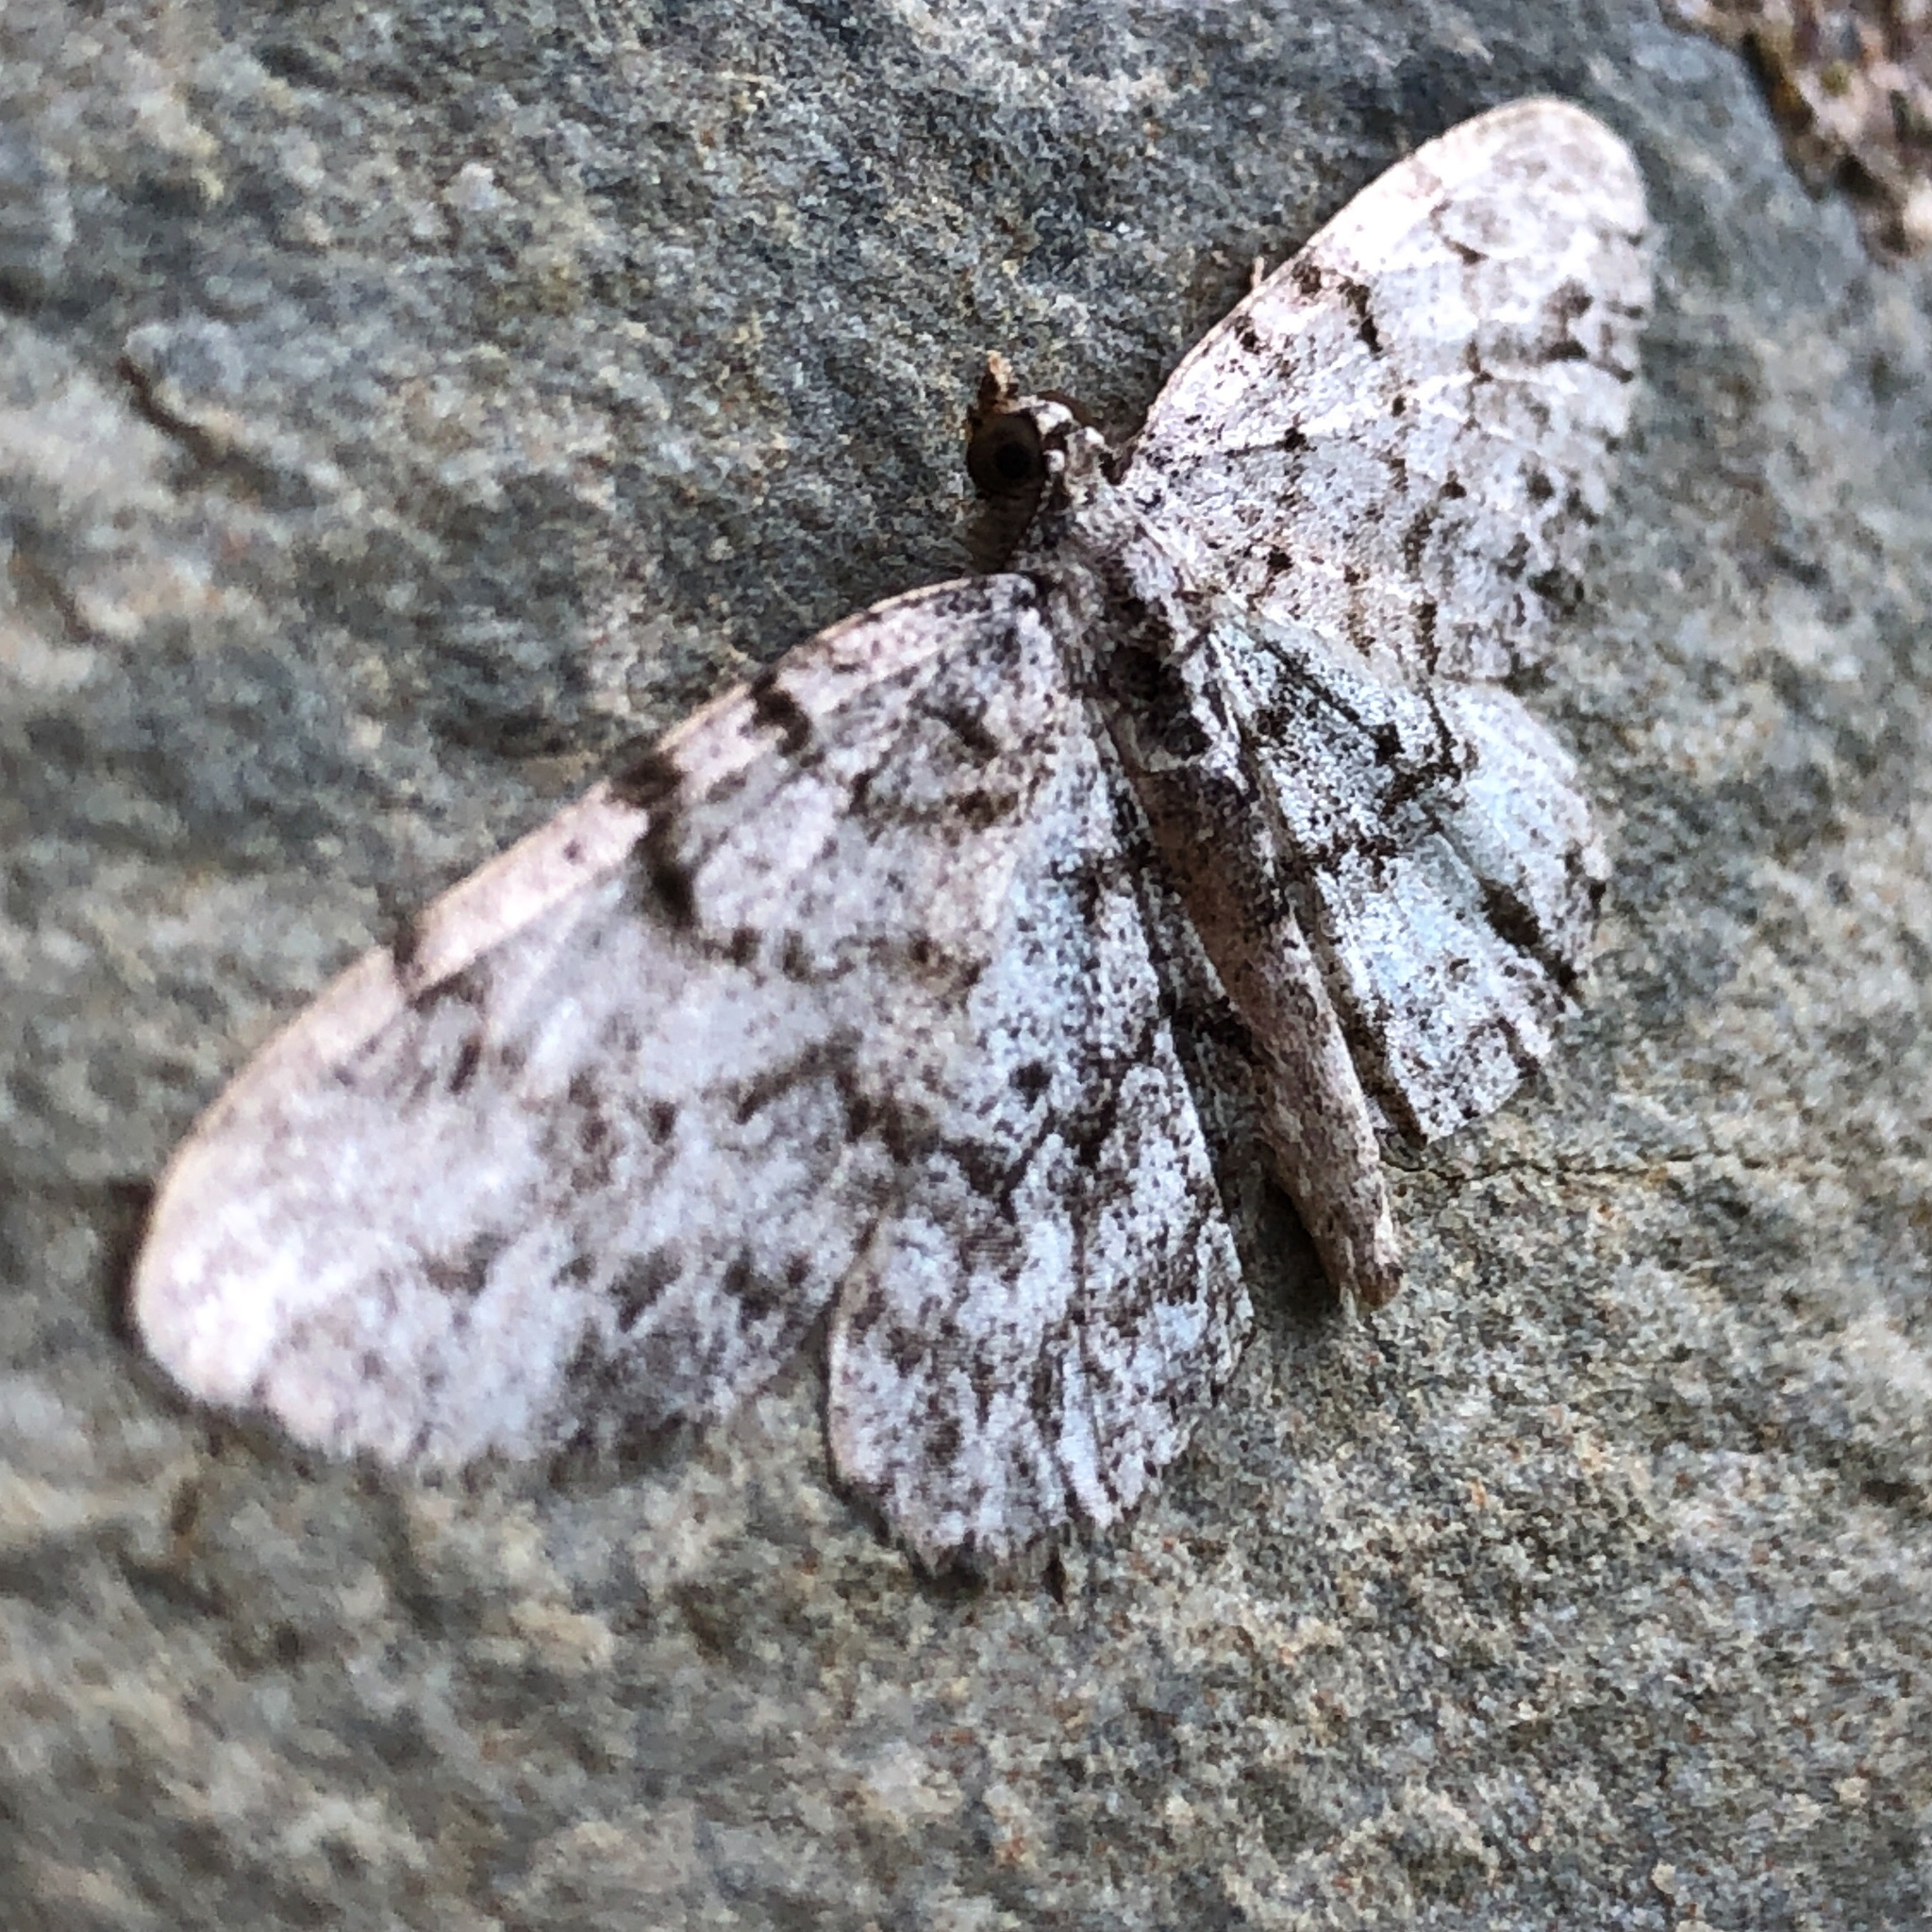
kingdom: Animalia
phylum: Arthropoda
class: Insecta
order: Lepidoptera
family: Geometridae
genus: Protoboarmia
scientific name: Protoboarmia porcelaria
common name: Porcelain gray
